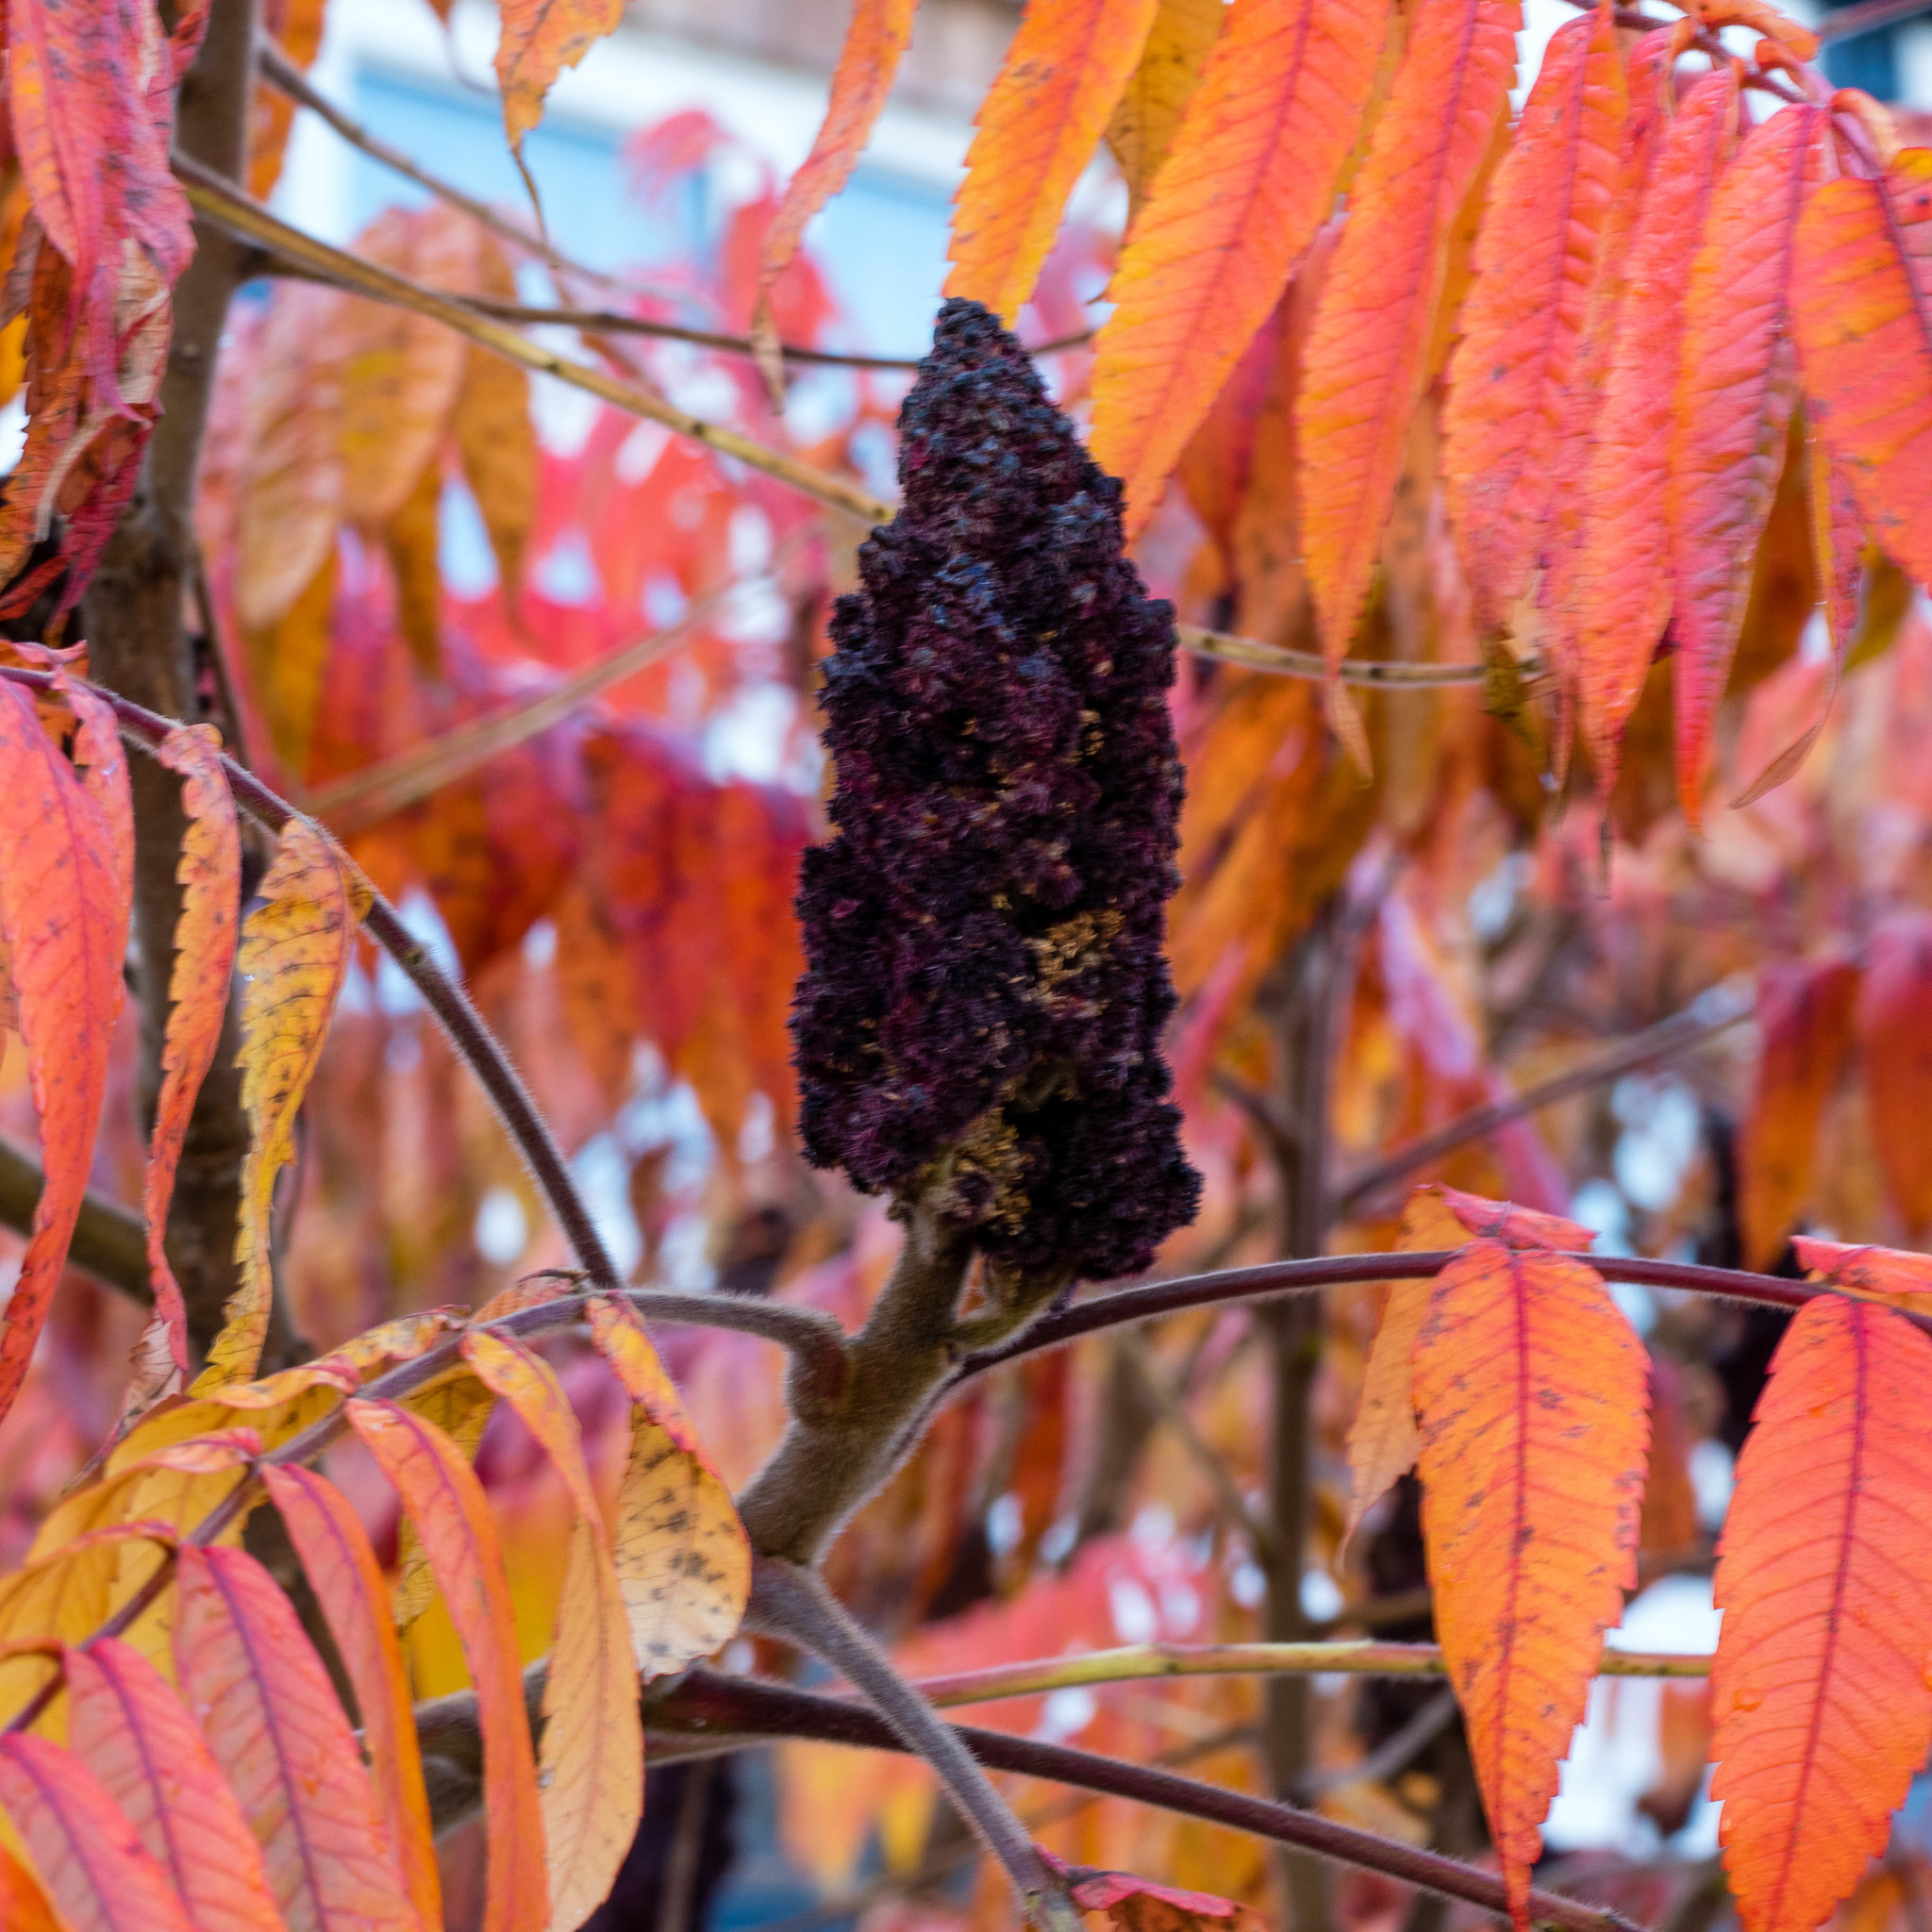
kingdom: Plantae
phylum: Tracheophyta
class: Magnoliopsida
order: Sapindales
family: Anacardiaceae
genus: Rhus
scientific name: Rhus typhina
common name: Staghorn sumac
